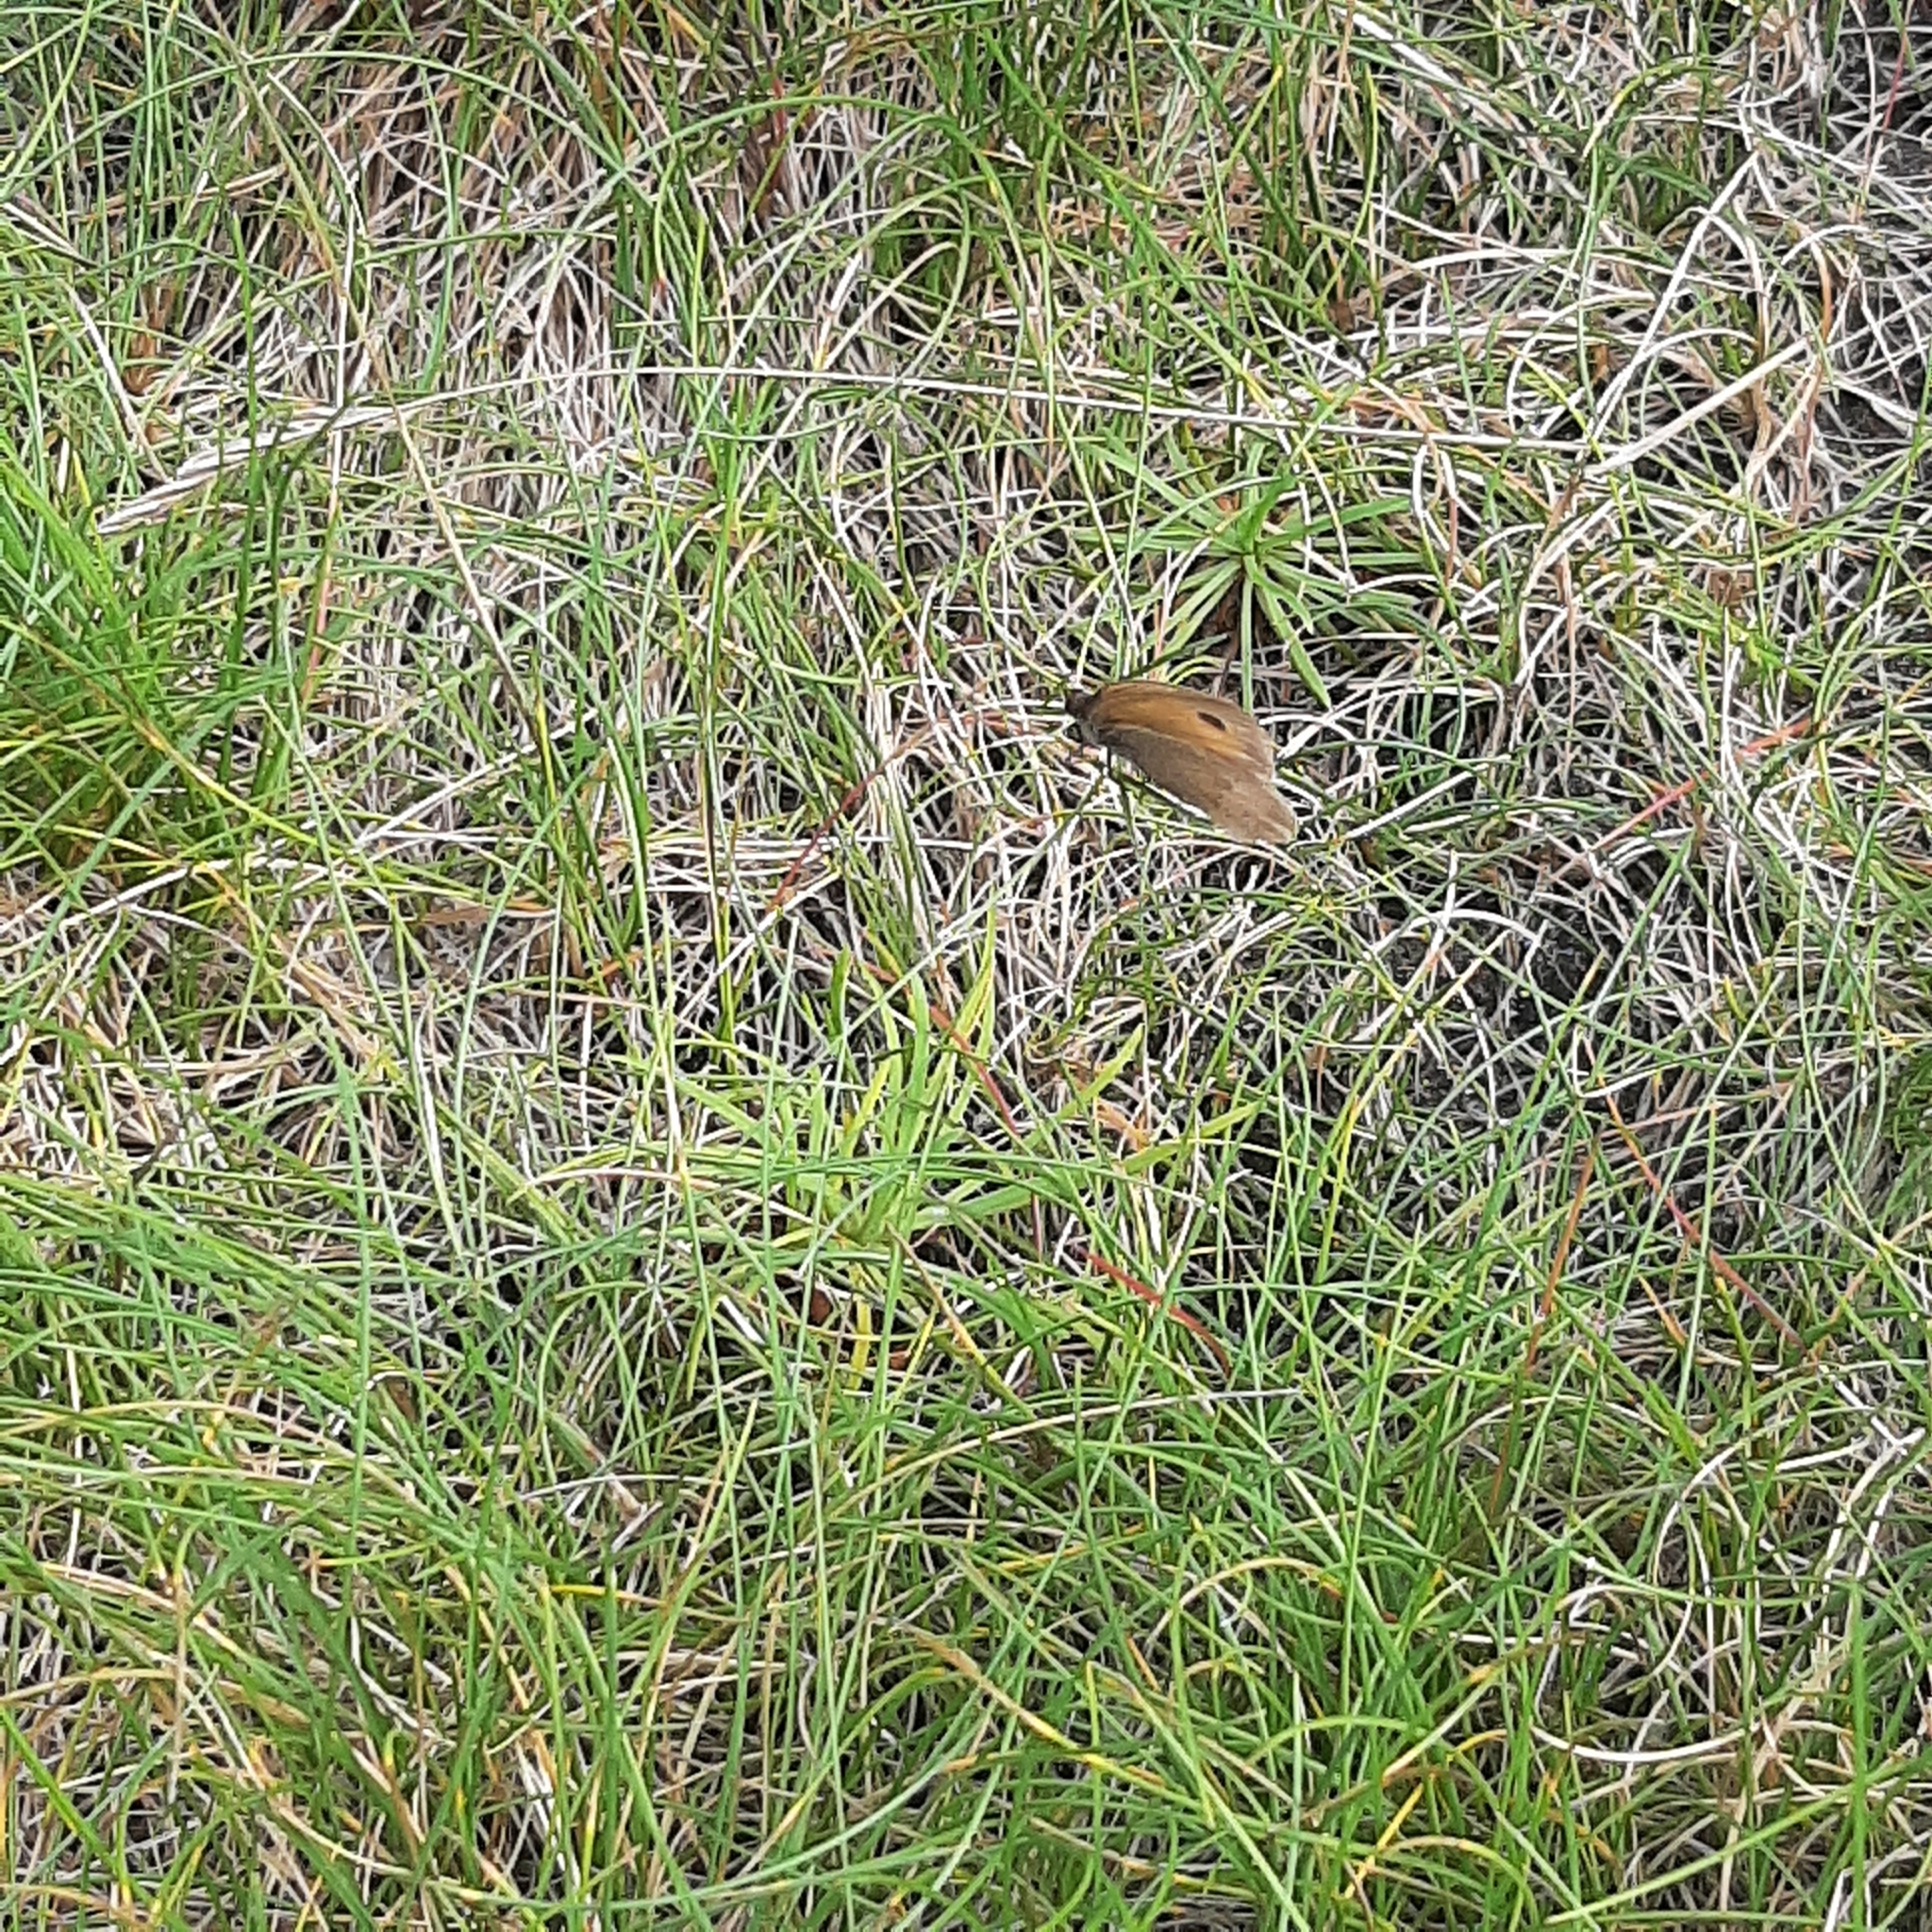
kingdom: Animalia
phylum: Arthropoda
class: Insecta
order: Lepidoptera
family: Nymphalidae
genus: Maniola
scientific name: Maniola jurtina
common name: Meadow brown
